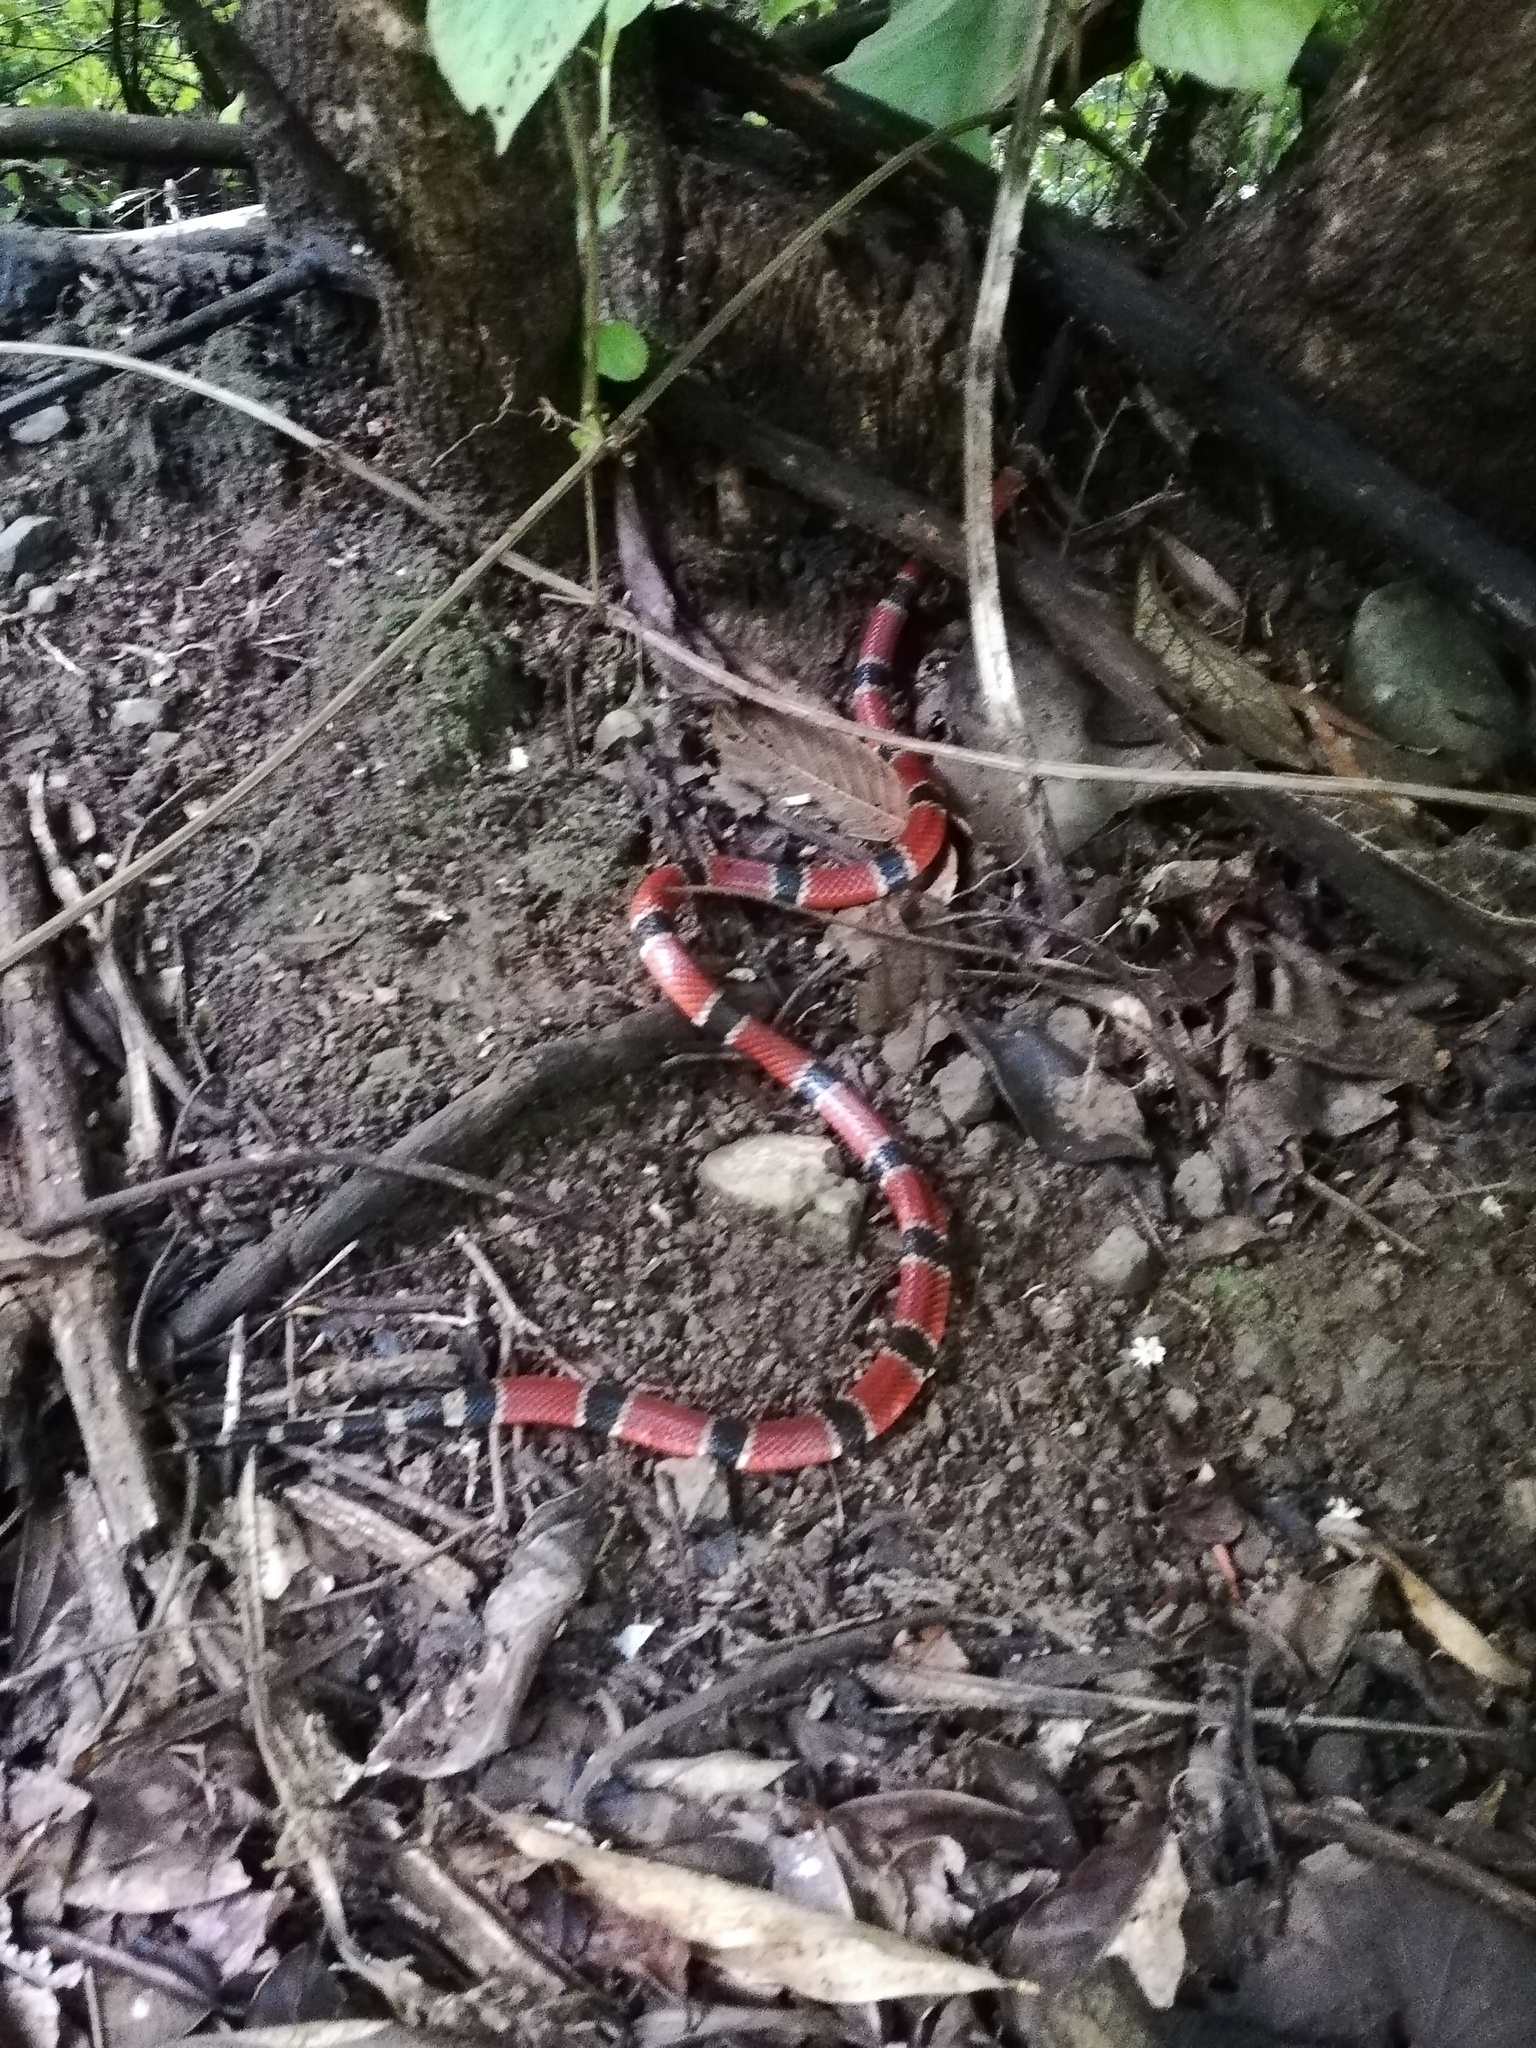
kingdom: Animalia
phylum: Chordata
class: Squamata
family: Elapidae
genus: Micrurus
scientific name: Micrurus nigrocinctus
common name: Babaspul [babaspul]
